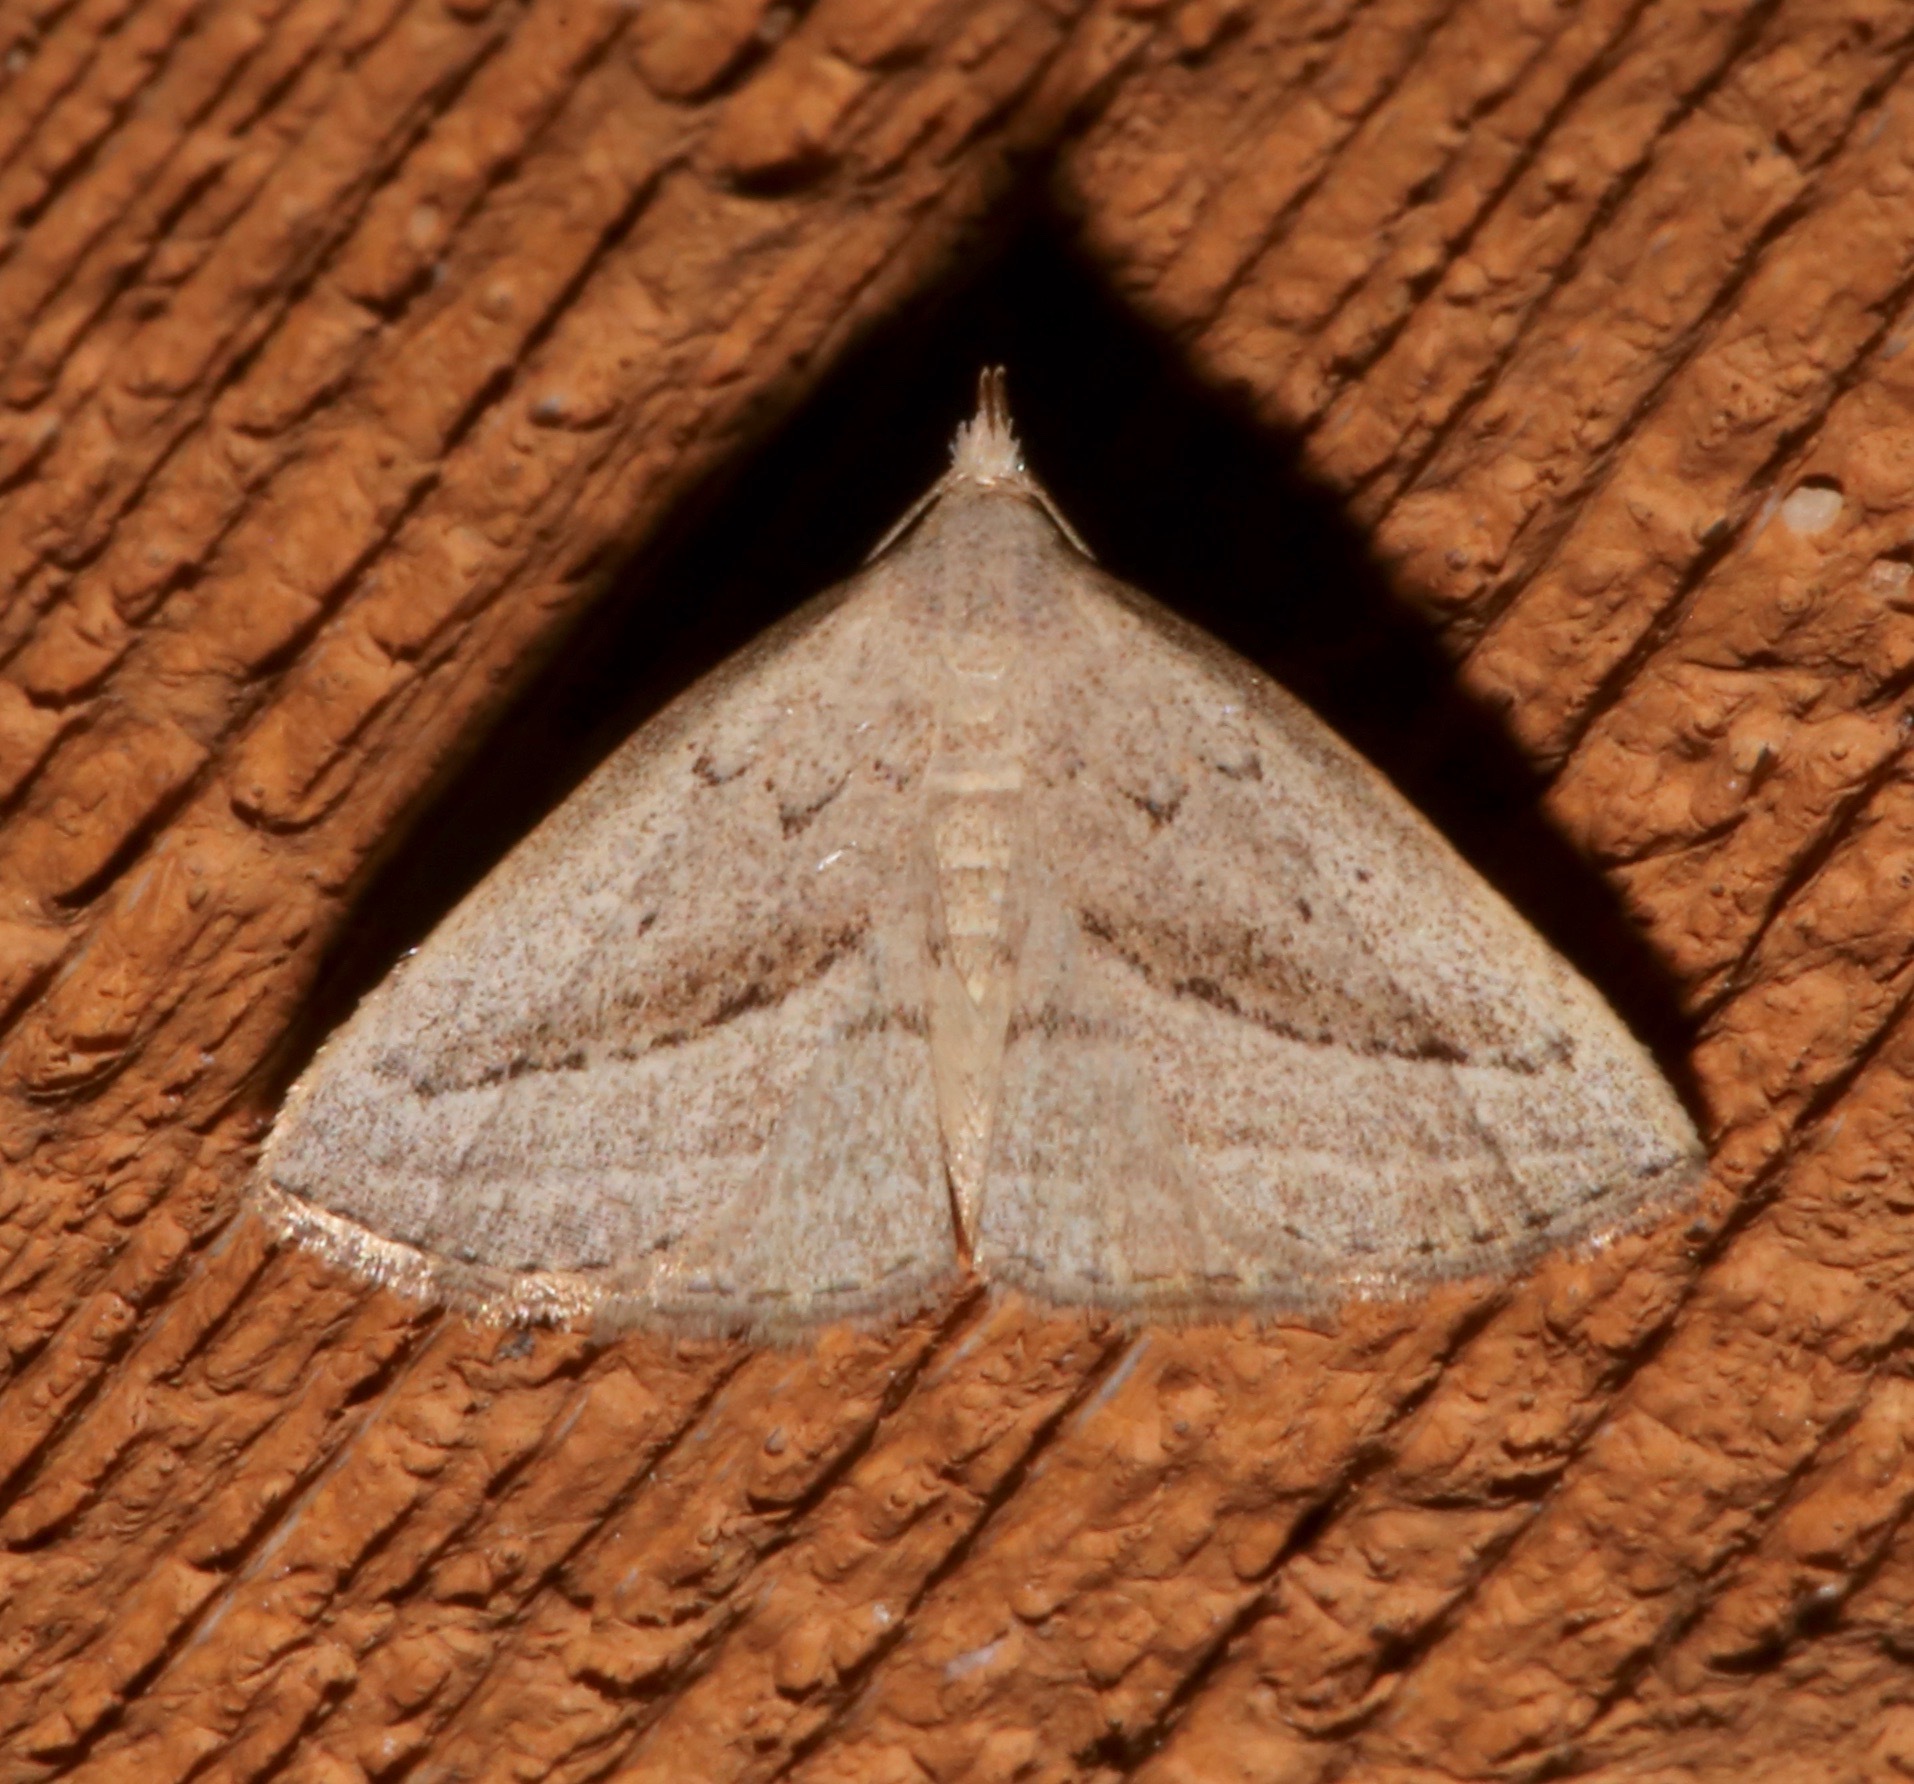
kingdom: Animalia
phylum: Arthropoda
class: Insecta
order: Lepidoptera
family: Erebidae
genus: Macrochilo
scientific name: Macrochilo hypocritalis
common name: Twin-dotted owlet
